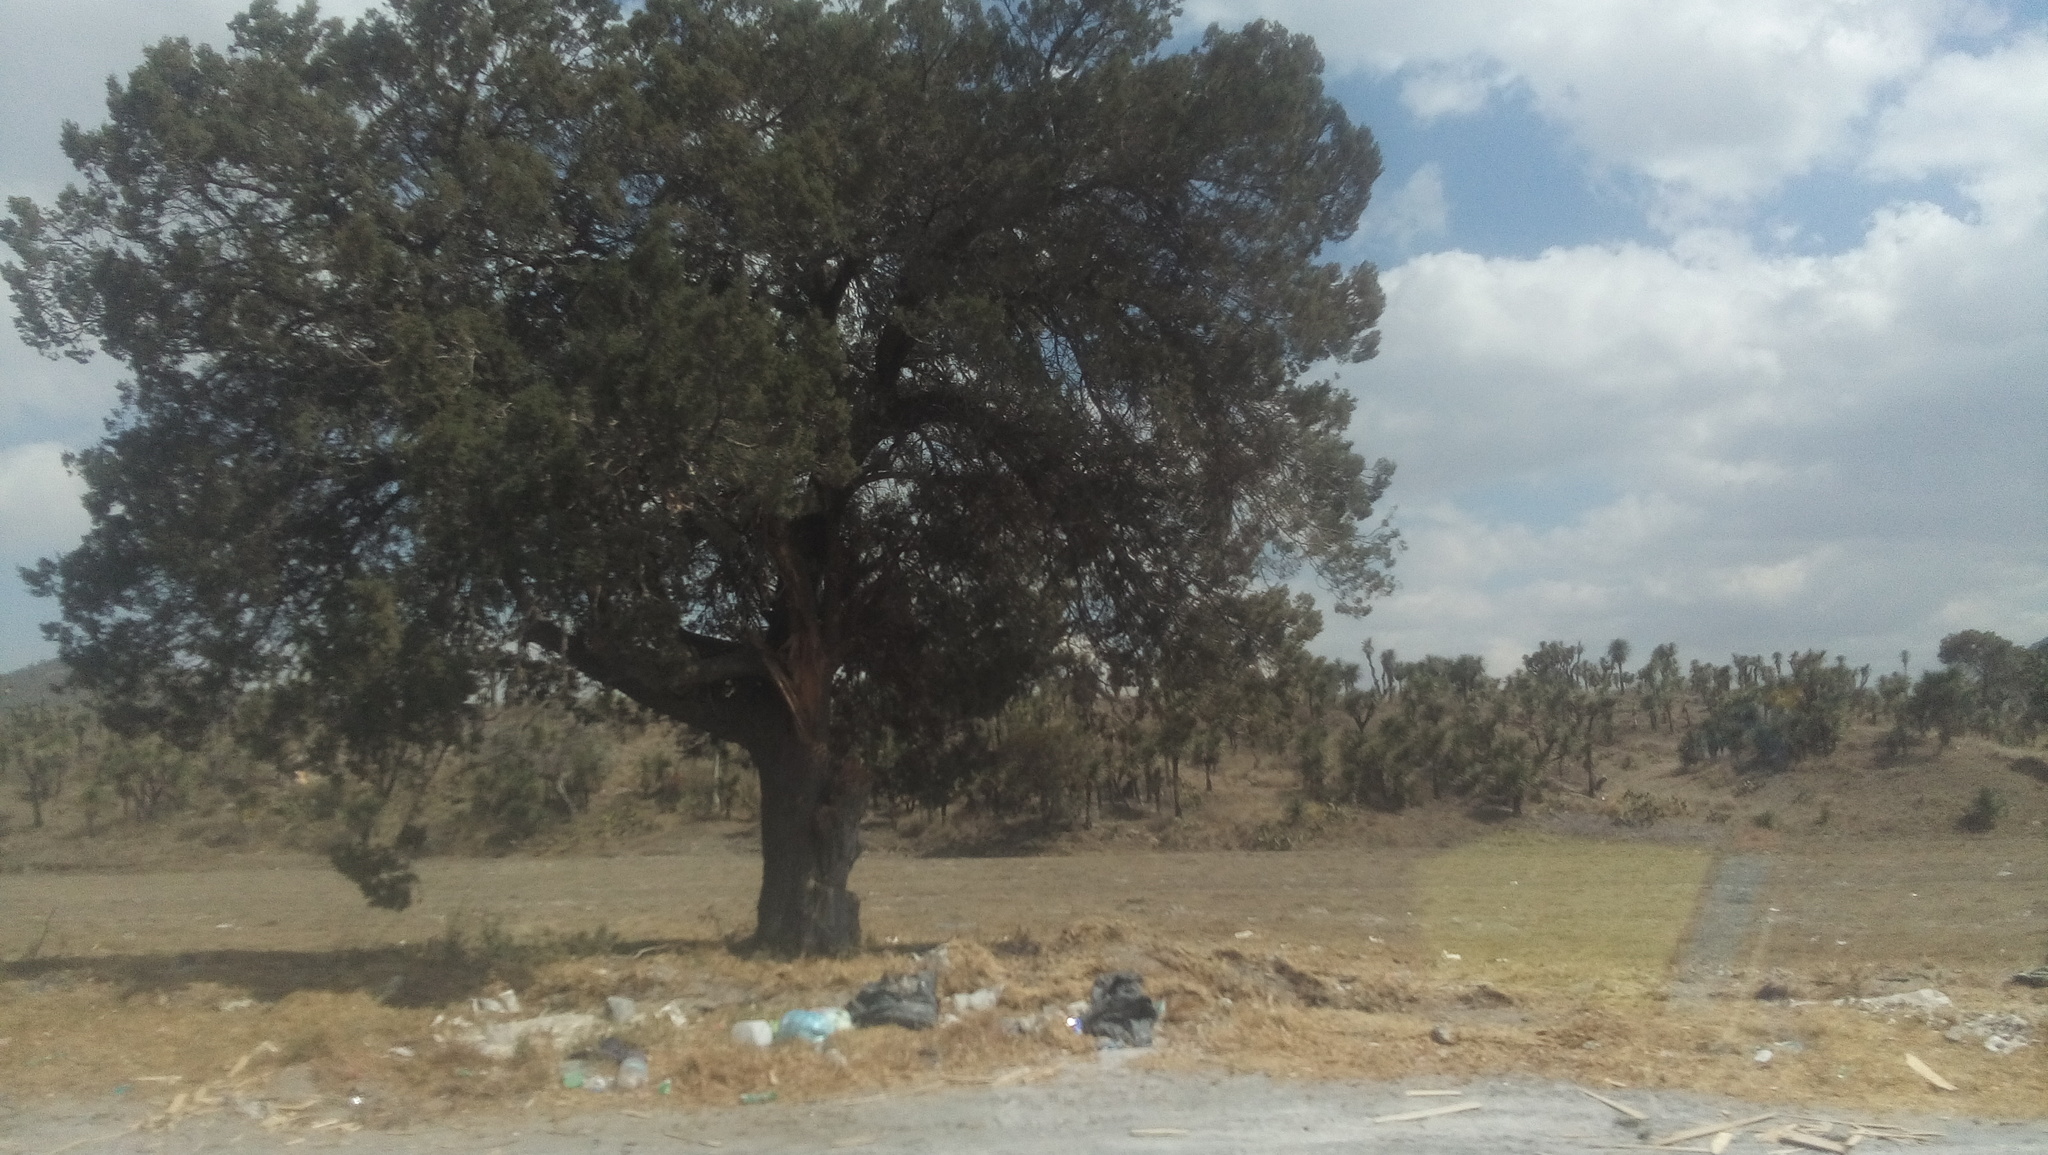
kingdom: Plantae
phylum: Tracheophyta
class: Pinopsida
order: Pinales
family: Cupressaceae
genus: Juniperus
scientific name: Juniperus deppeana
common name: Alligator juniper
